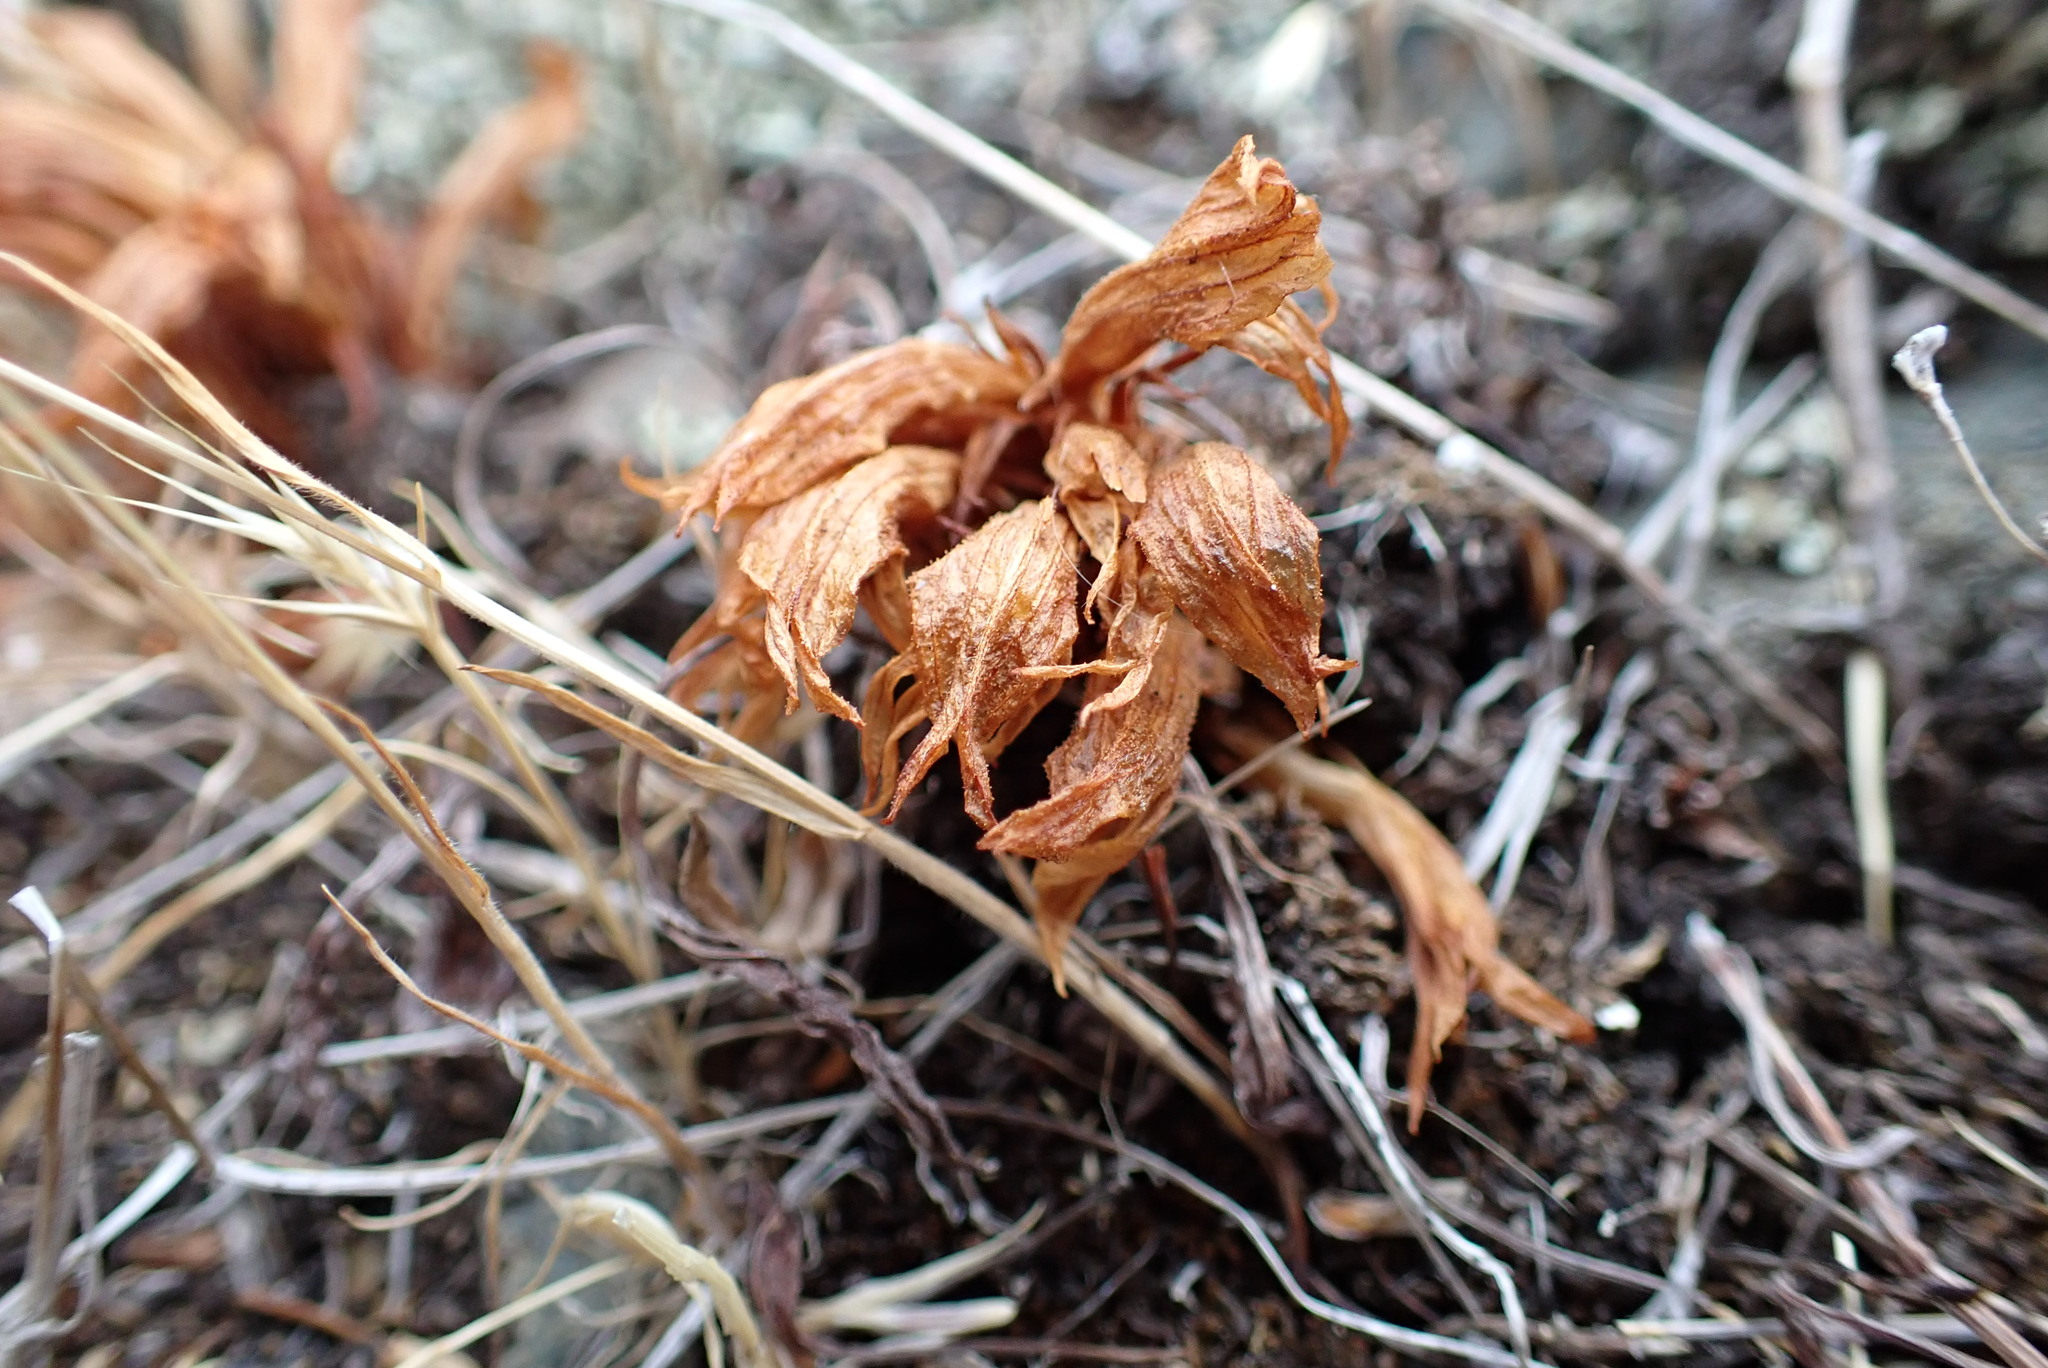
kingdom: Plantae
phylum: Tracheophyta
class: Magnoliopsida
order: Lamiales
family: Orobanchaceae
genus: Aphyllon
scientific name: Aphyllon californicum
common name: California broomrape
